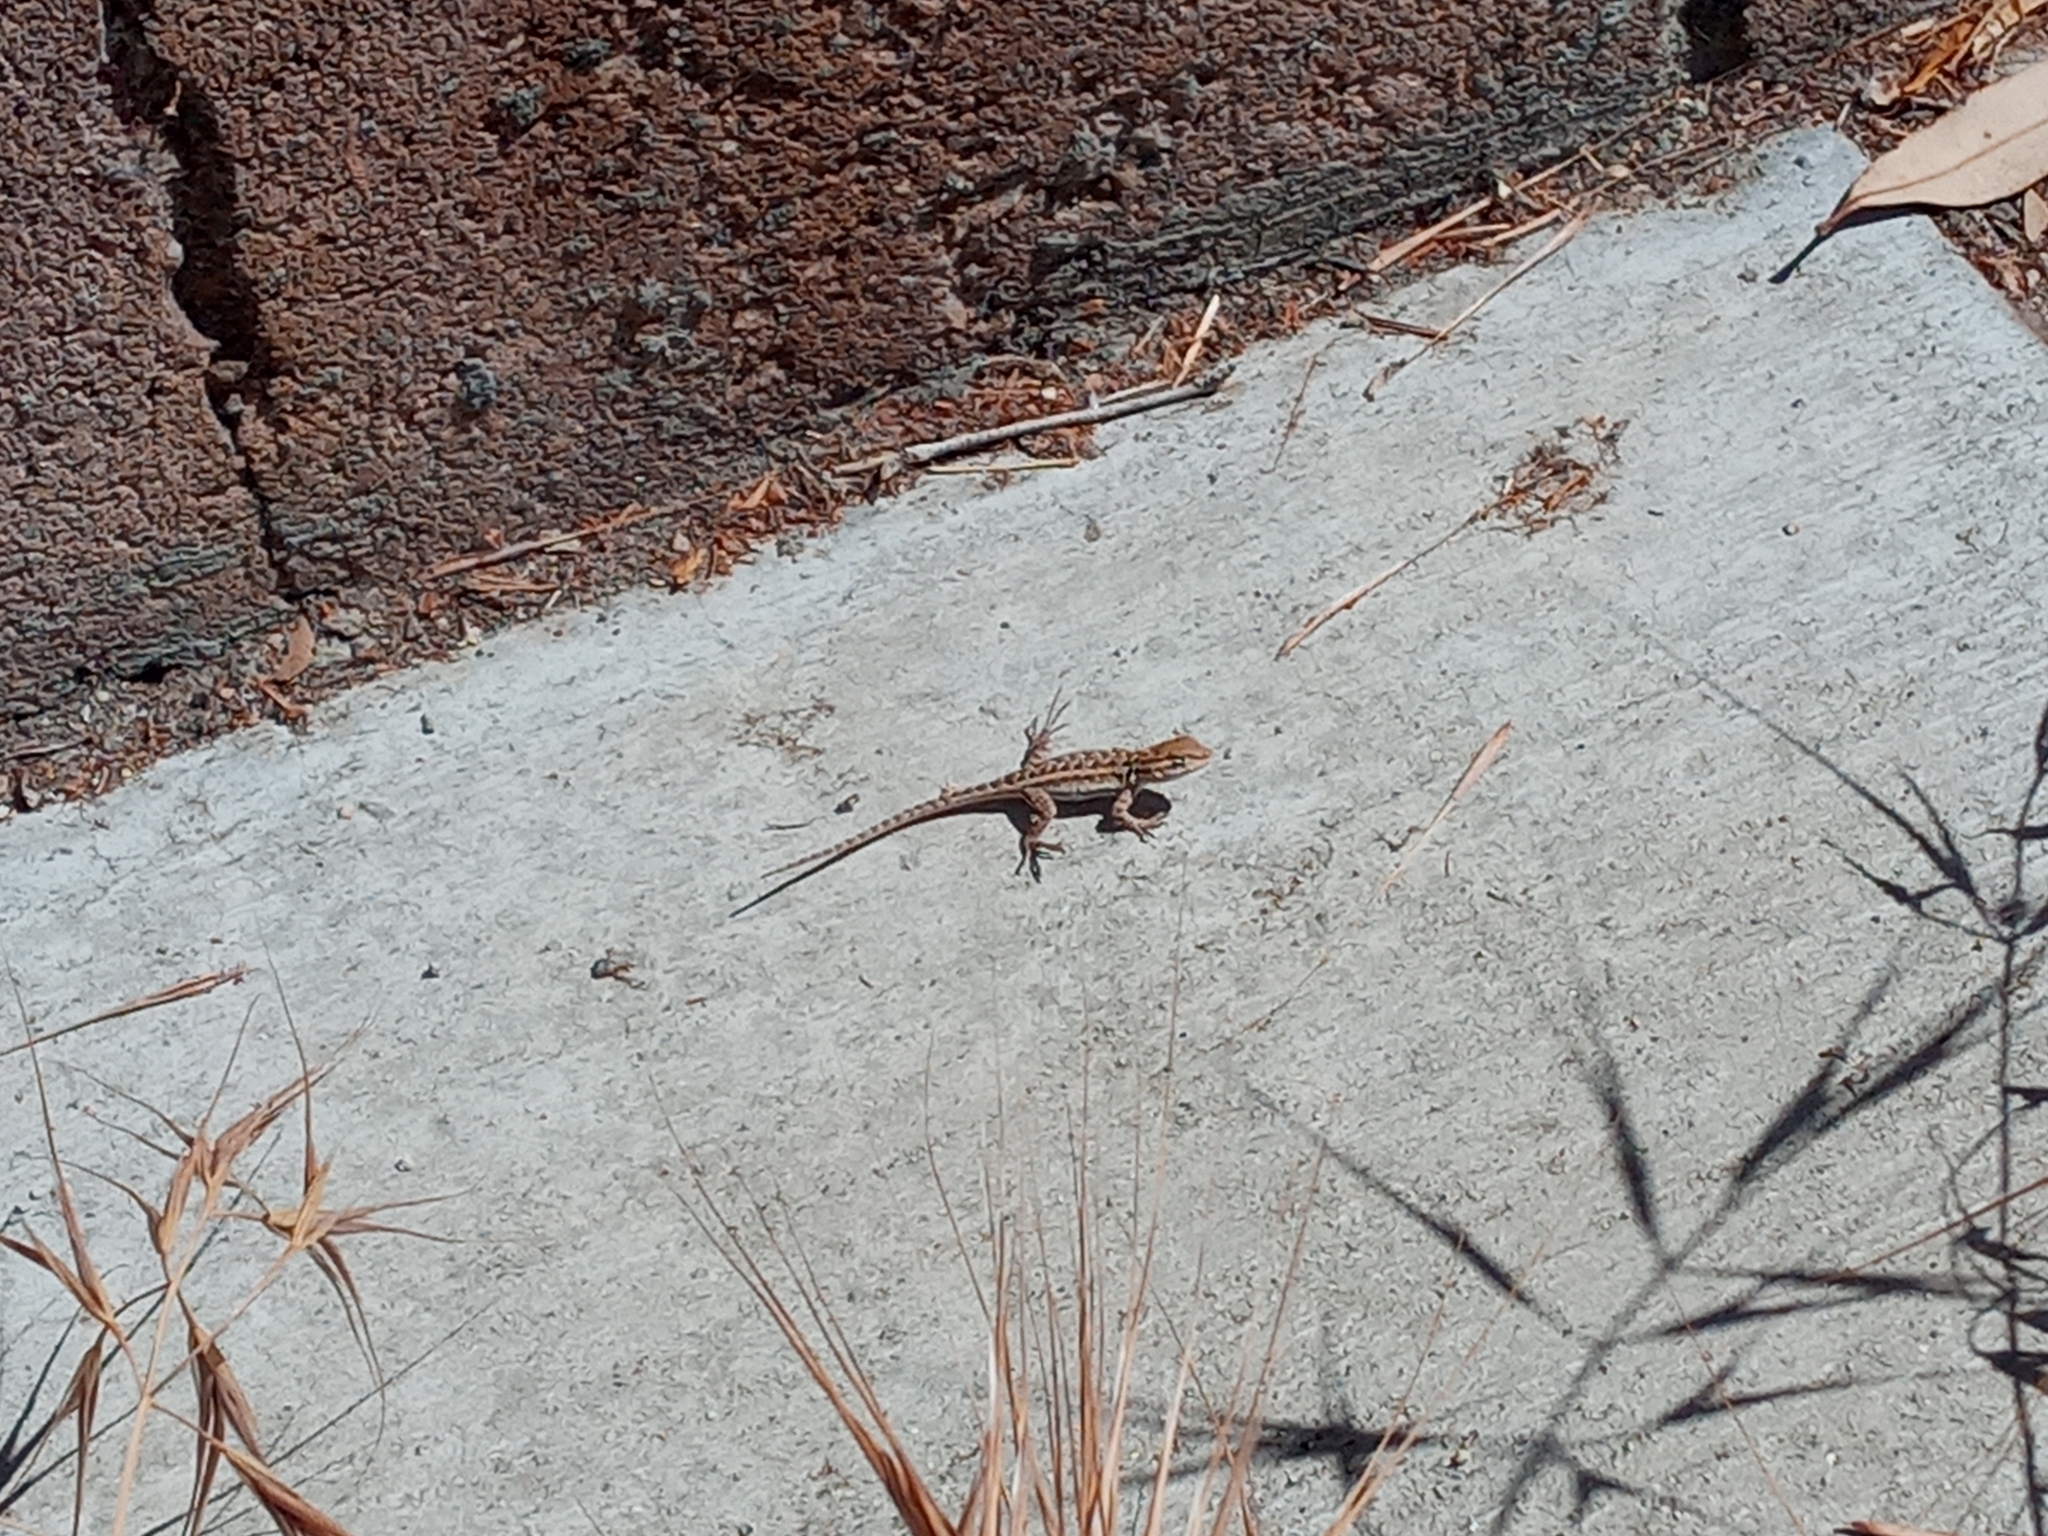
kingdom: Animalia
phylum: Chordata
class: Squamata
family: Phrynosomatidae
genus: Uta
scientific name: Uta stansburiana
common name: Side-blotched lizard
